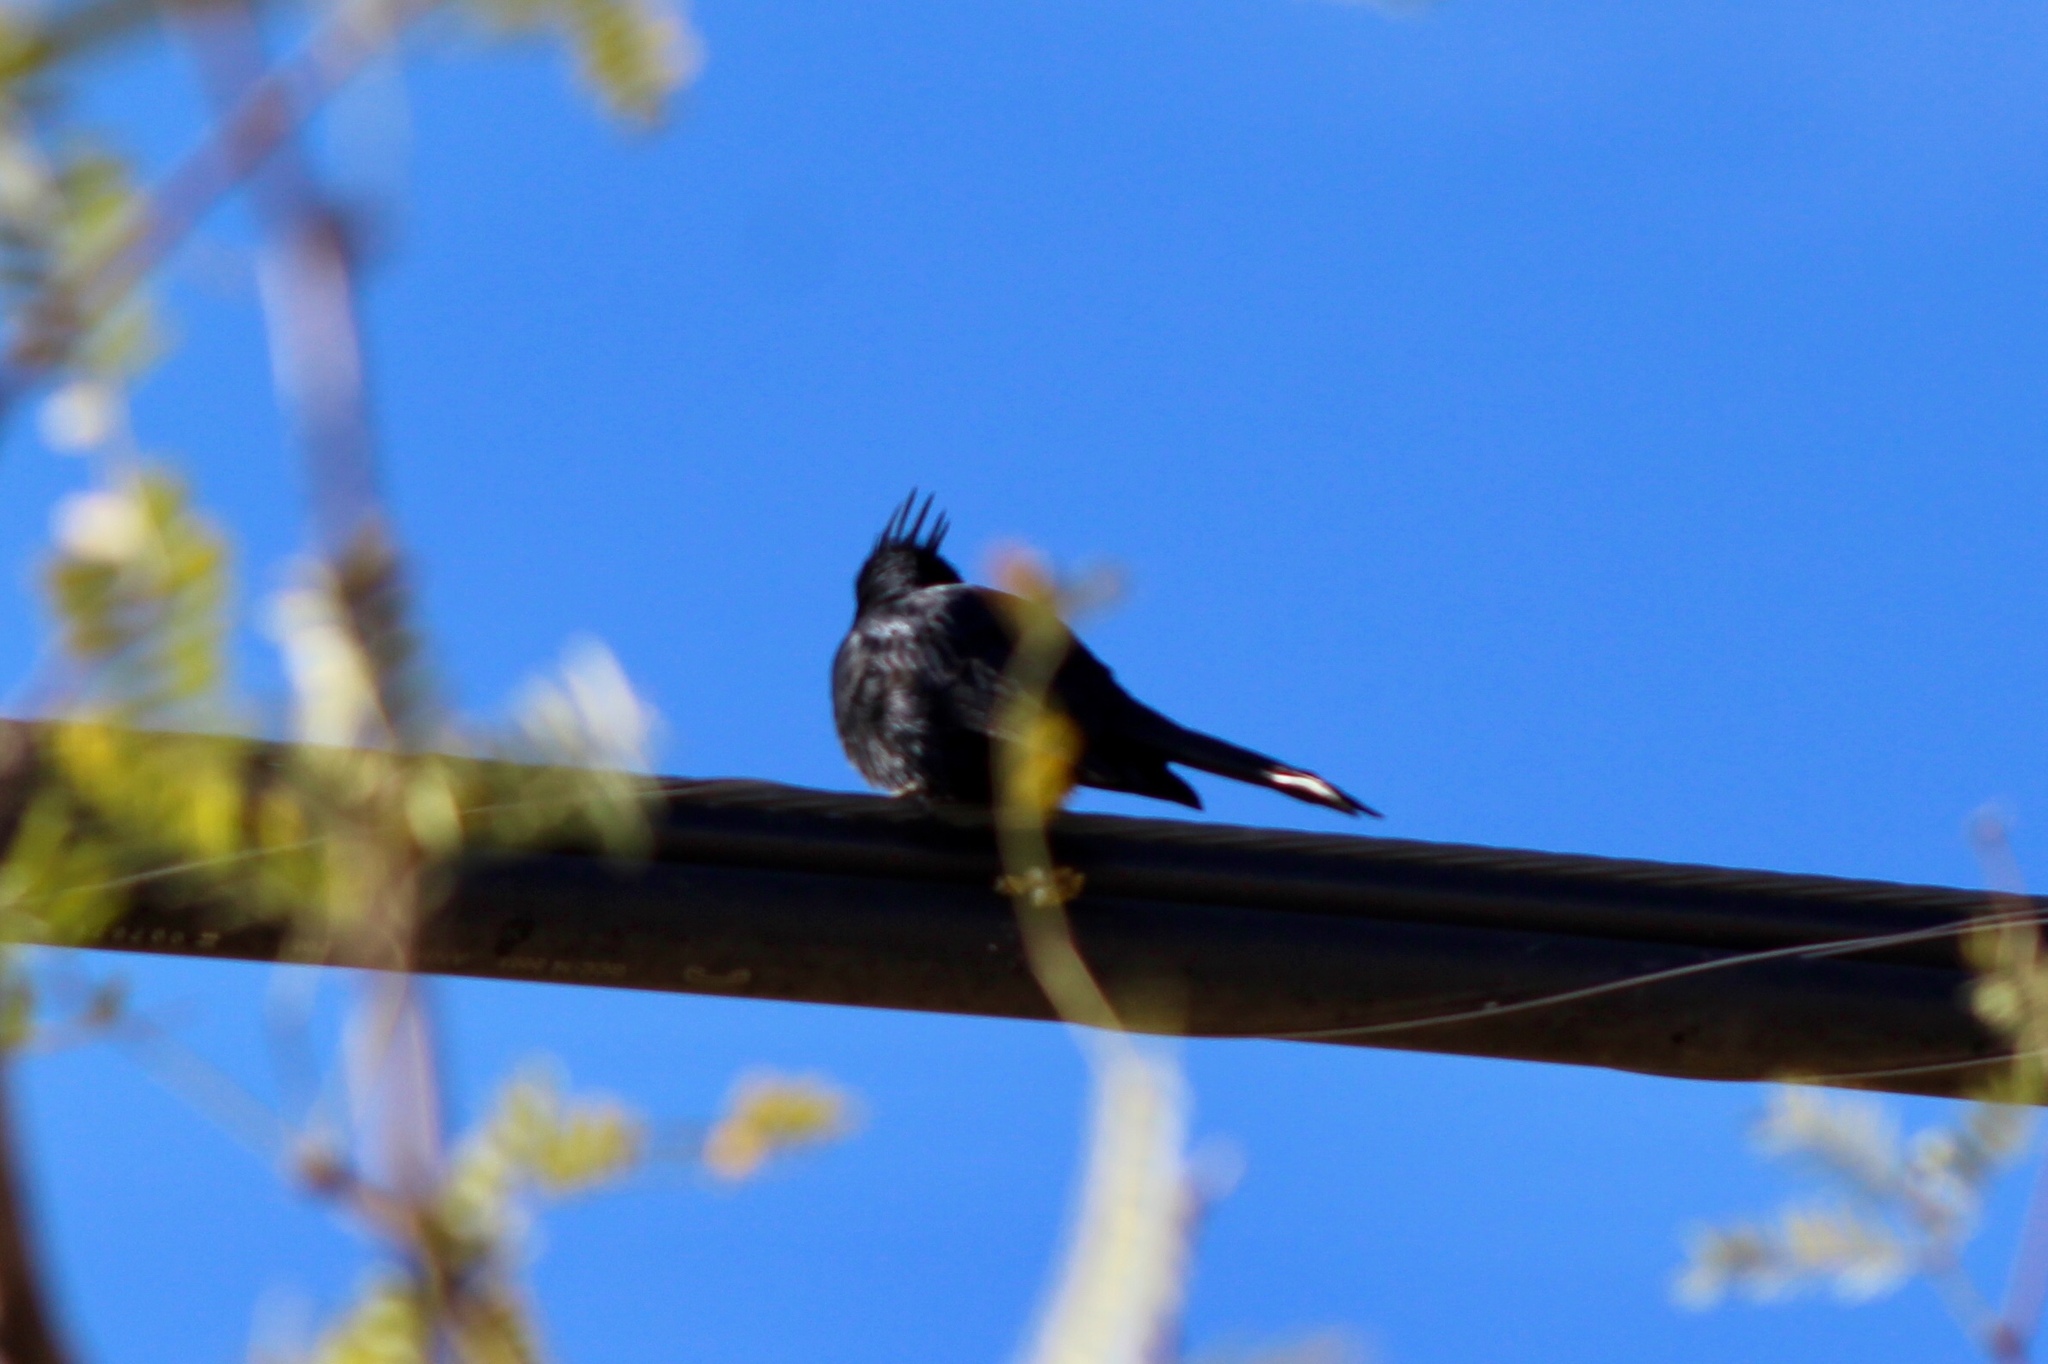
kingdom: Animalia
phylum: Chordata
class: Aves
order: Passeriformes
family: Ptilogonatidae
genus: Phainopepla
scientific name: Phainopepla nitens
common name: Phainopepla
